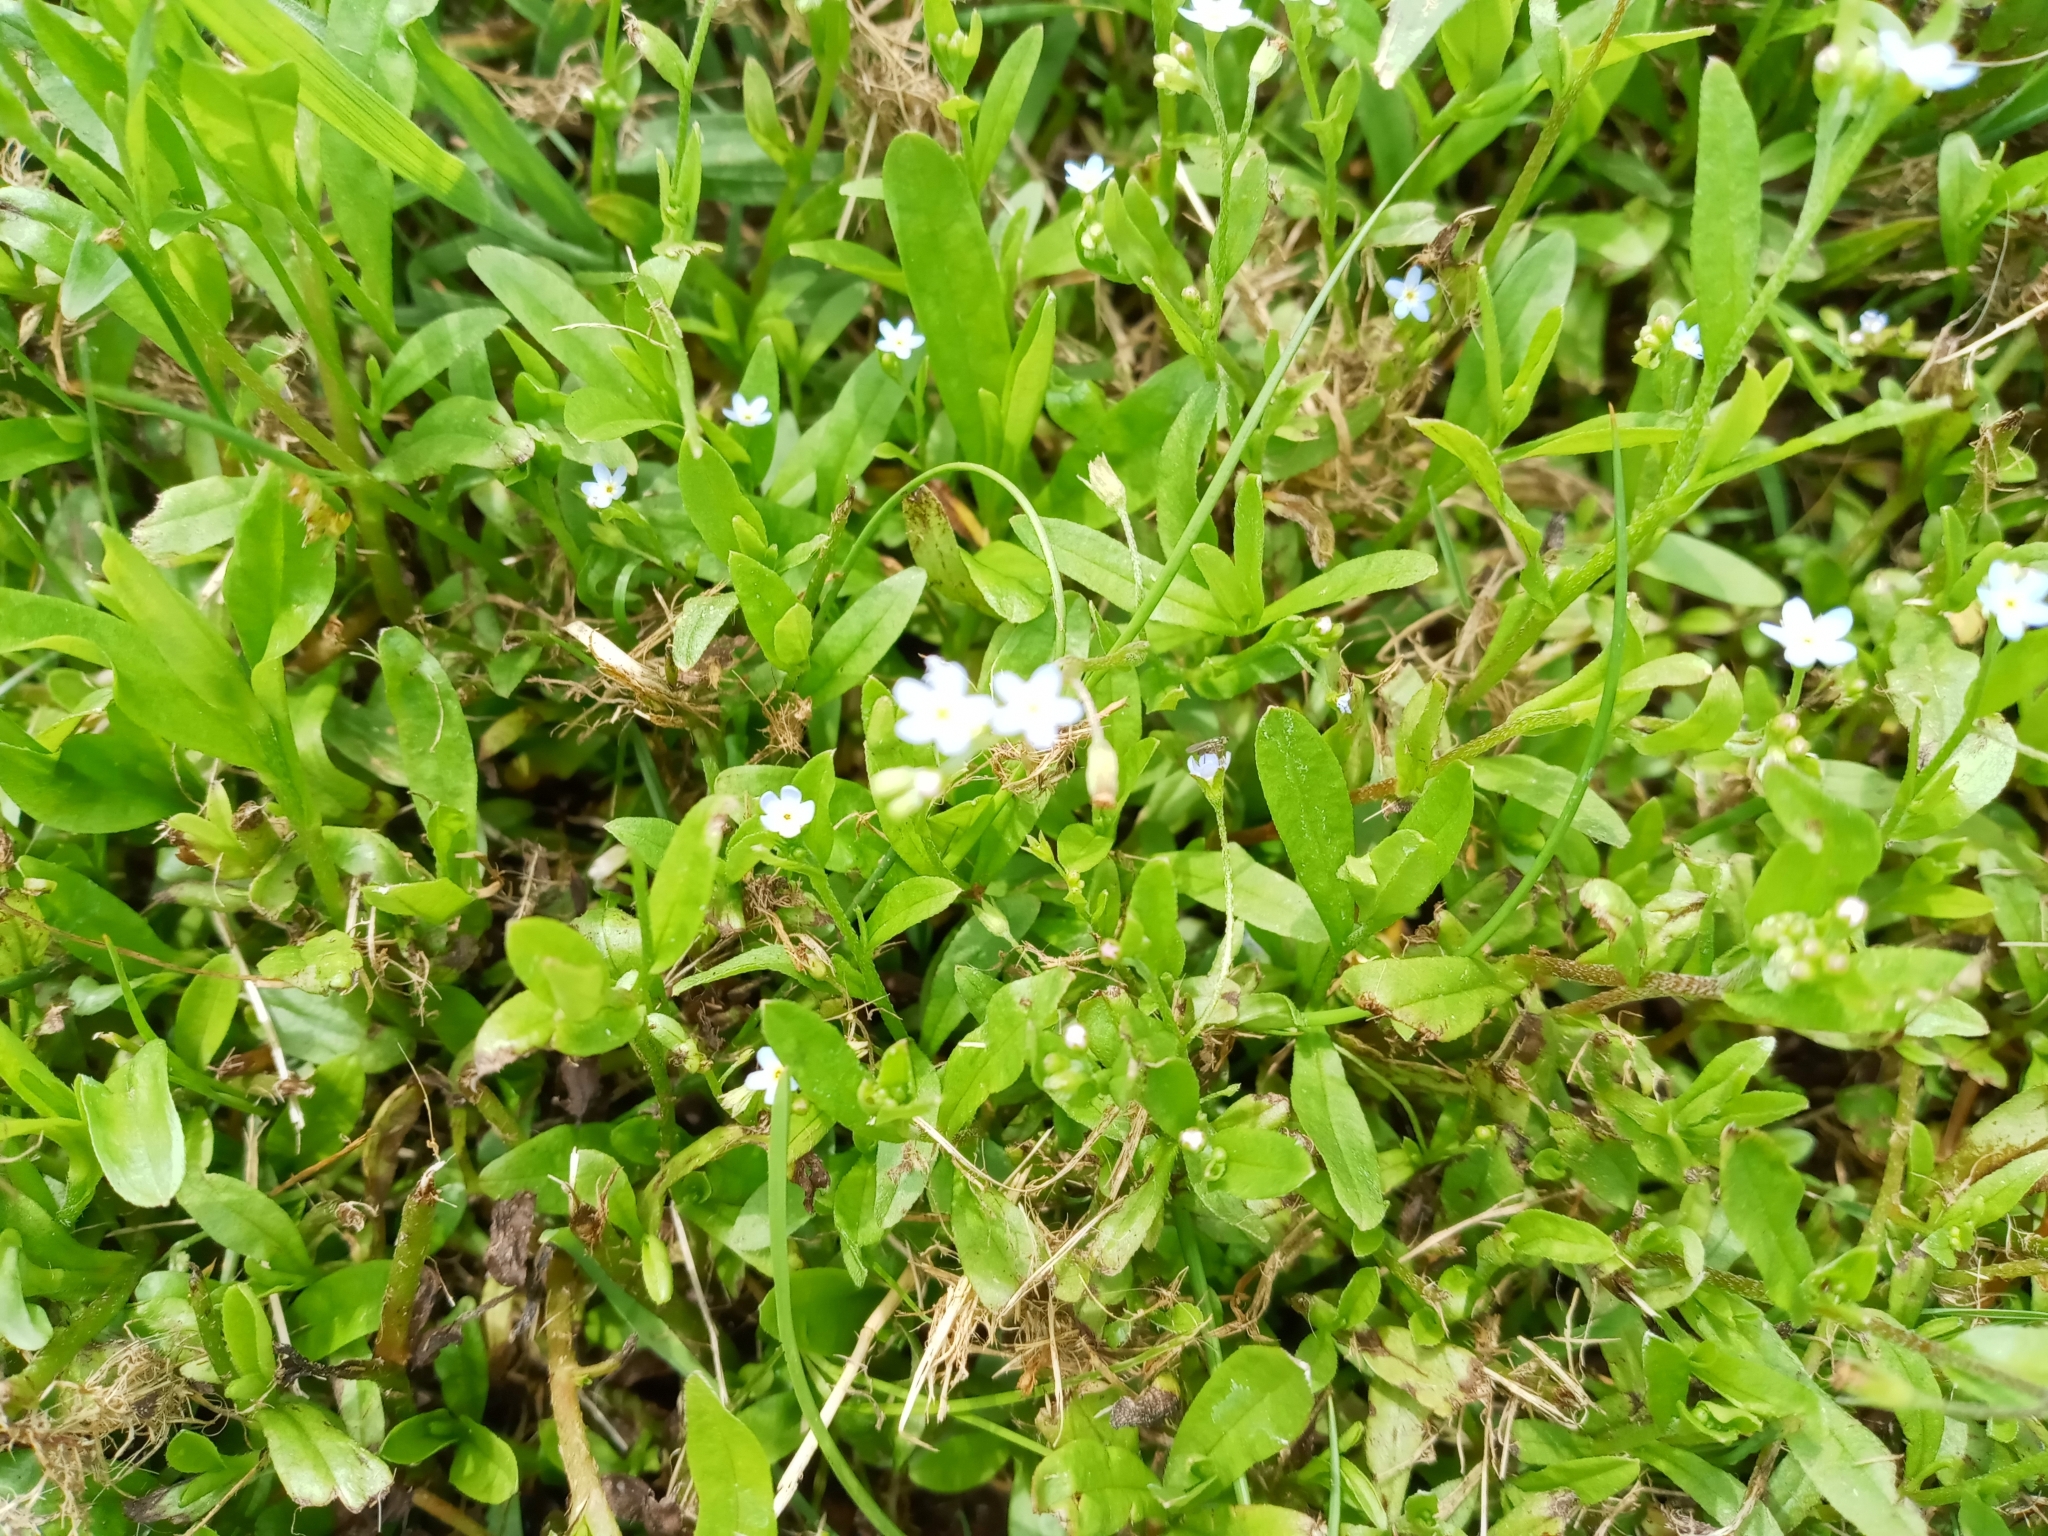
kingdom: Plantae
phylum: Tracheophyta
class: Magnoliopsida
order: Boraginales
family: Boraginaceae
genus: Myosotis
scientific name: Myosotis laxa
